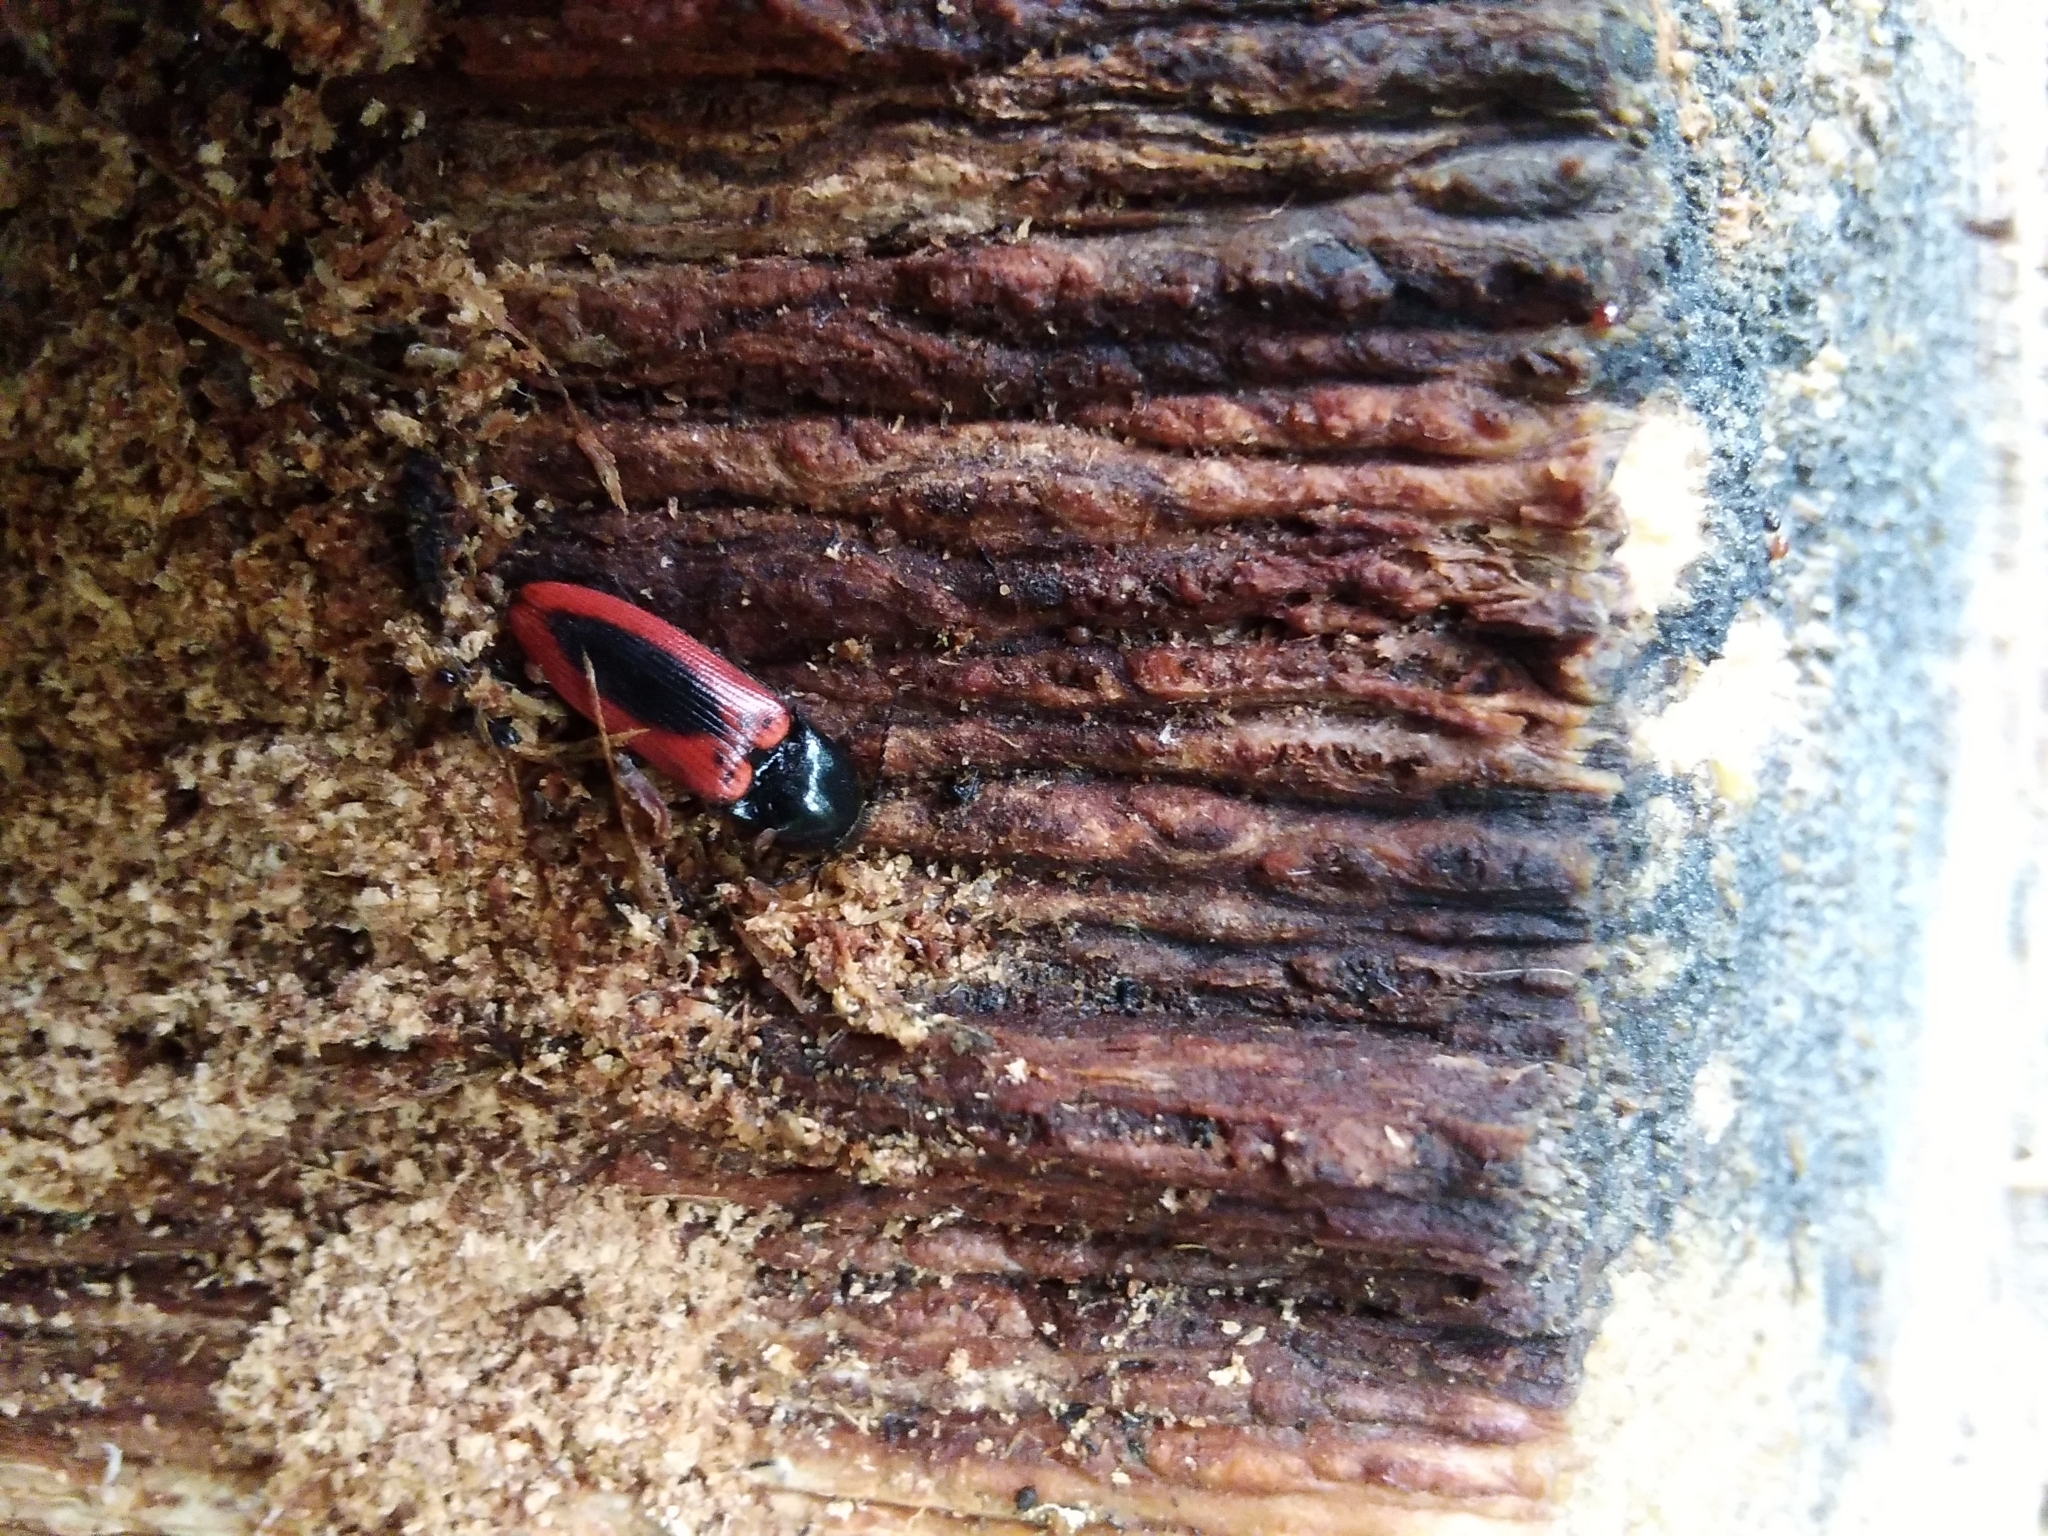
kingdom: Animalia
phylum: Arthropoda
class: Insecta
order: Coleoptera
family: Elateridae
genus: Ampedus
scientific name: Ampedus sanguinolentus
